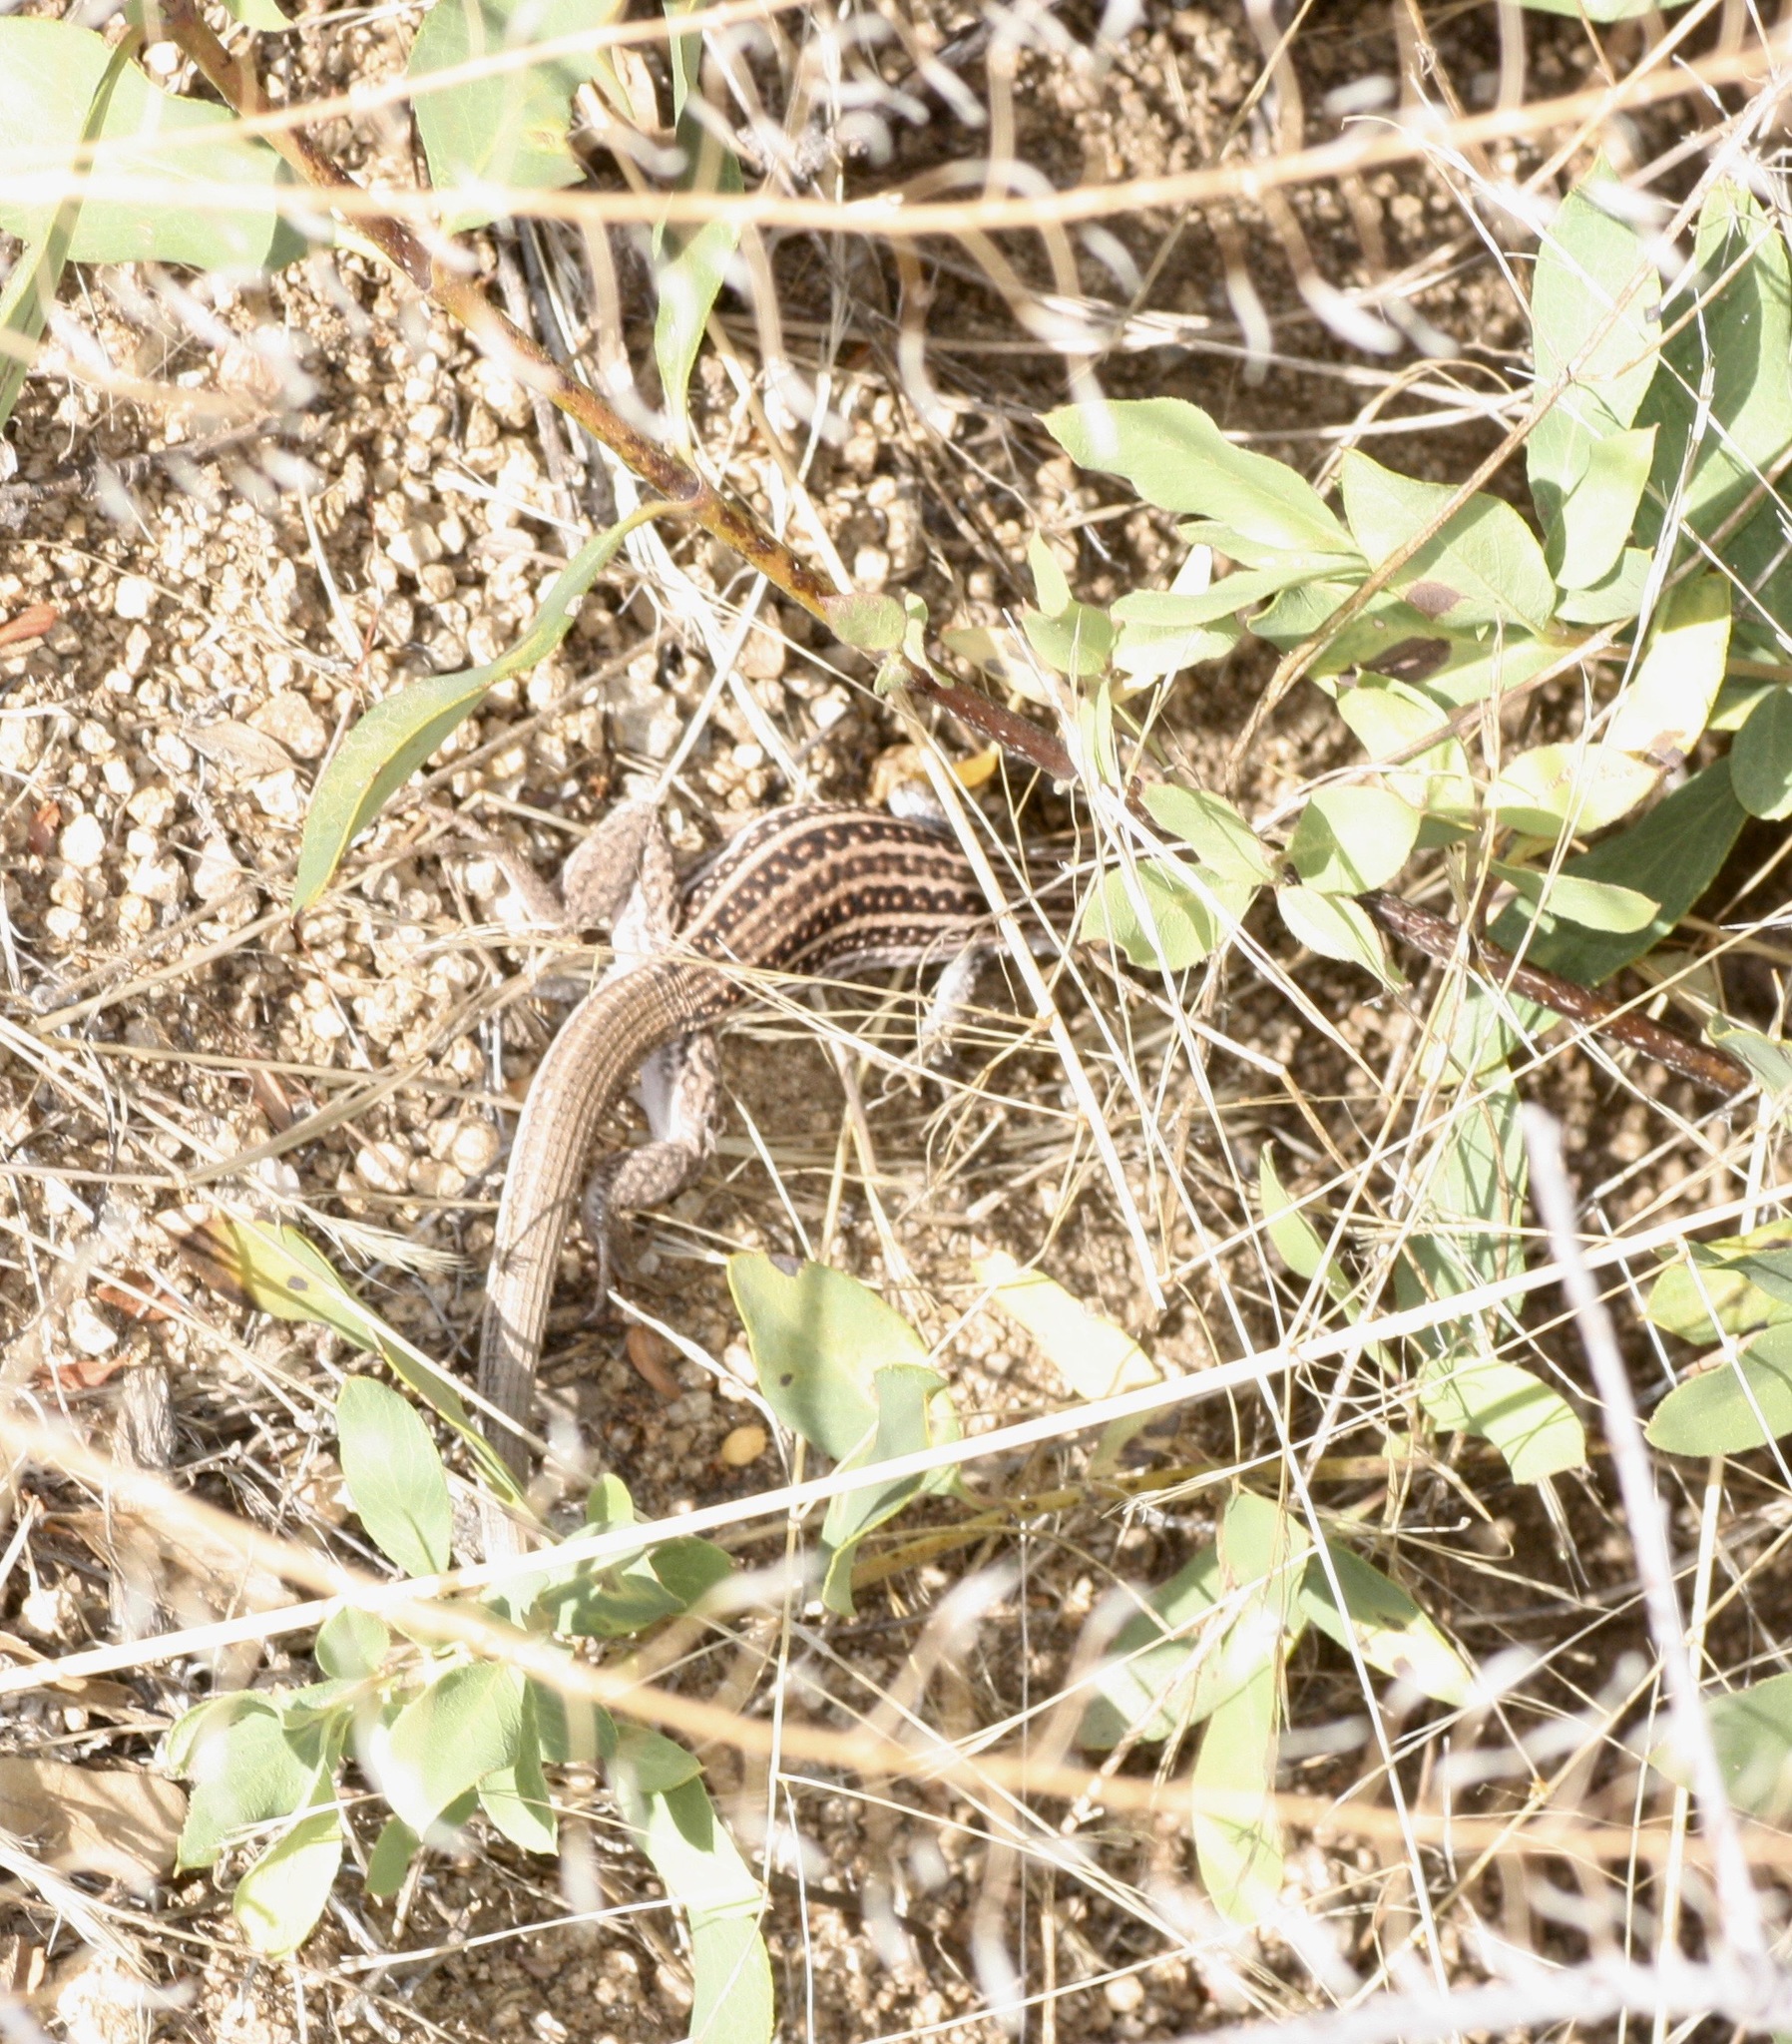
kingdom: Animalia
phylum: Chordata
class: Squamata
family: Teiidae
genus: Aspidoscelis
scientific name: Aspidoscelis exsanguis
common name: Chihuahuan spotted whiptail
